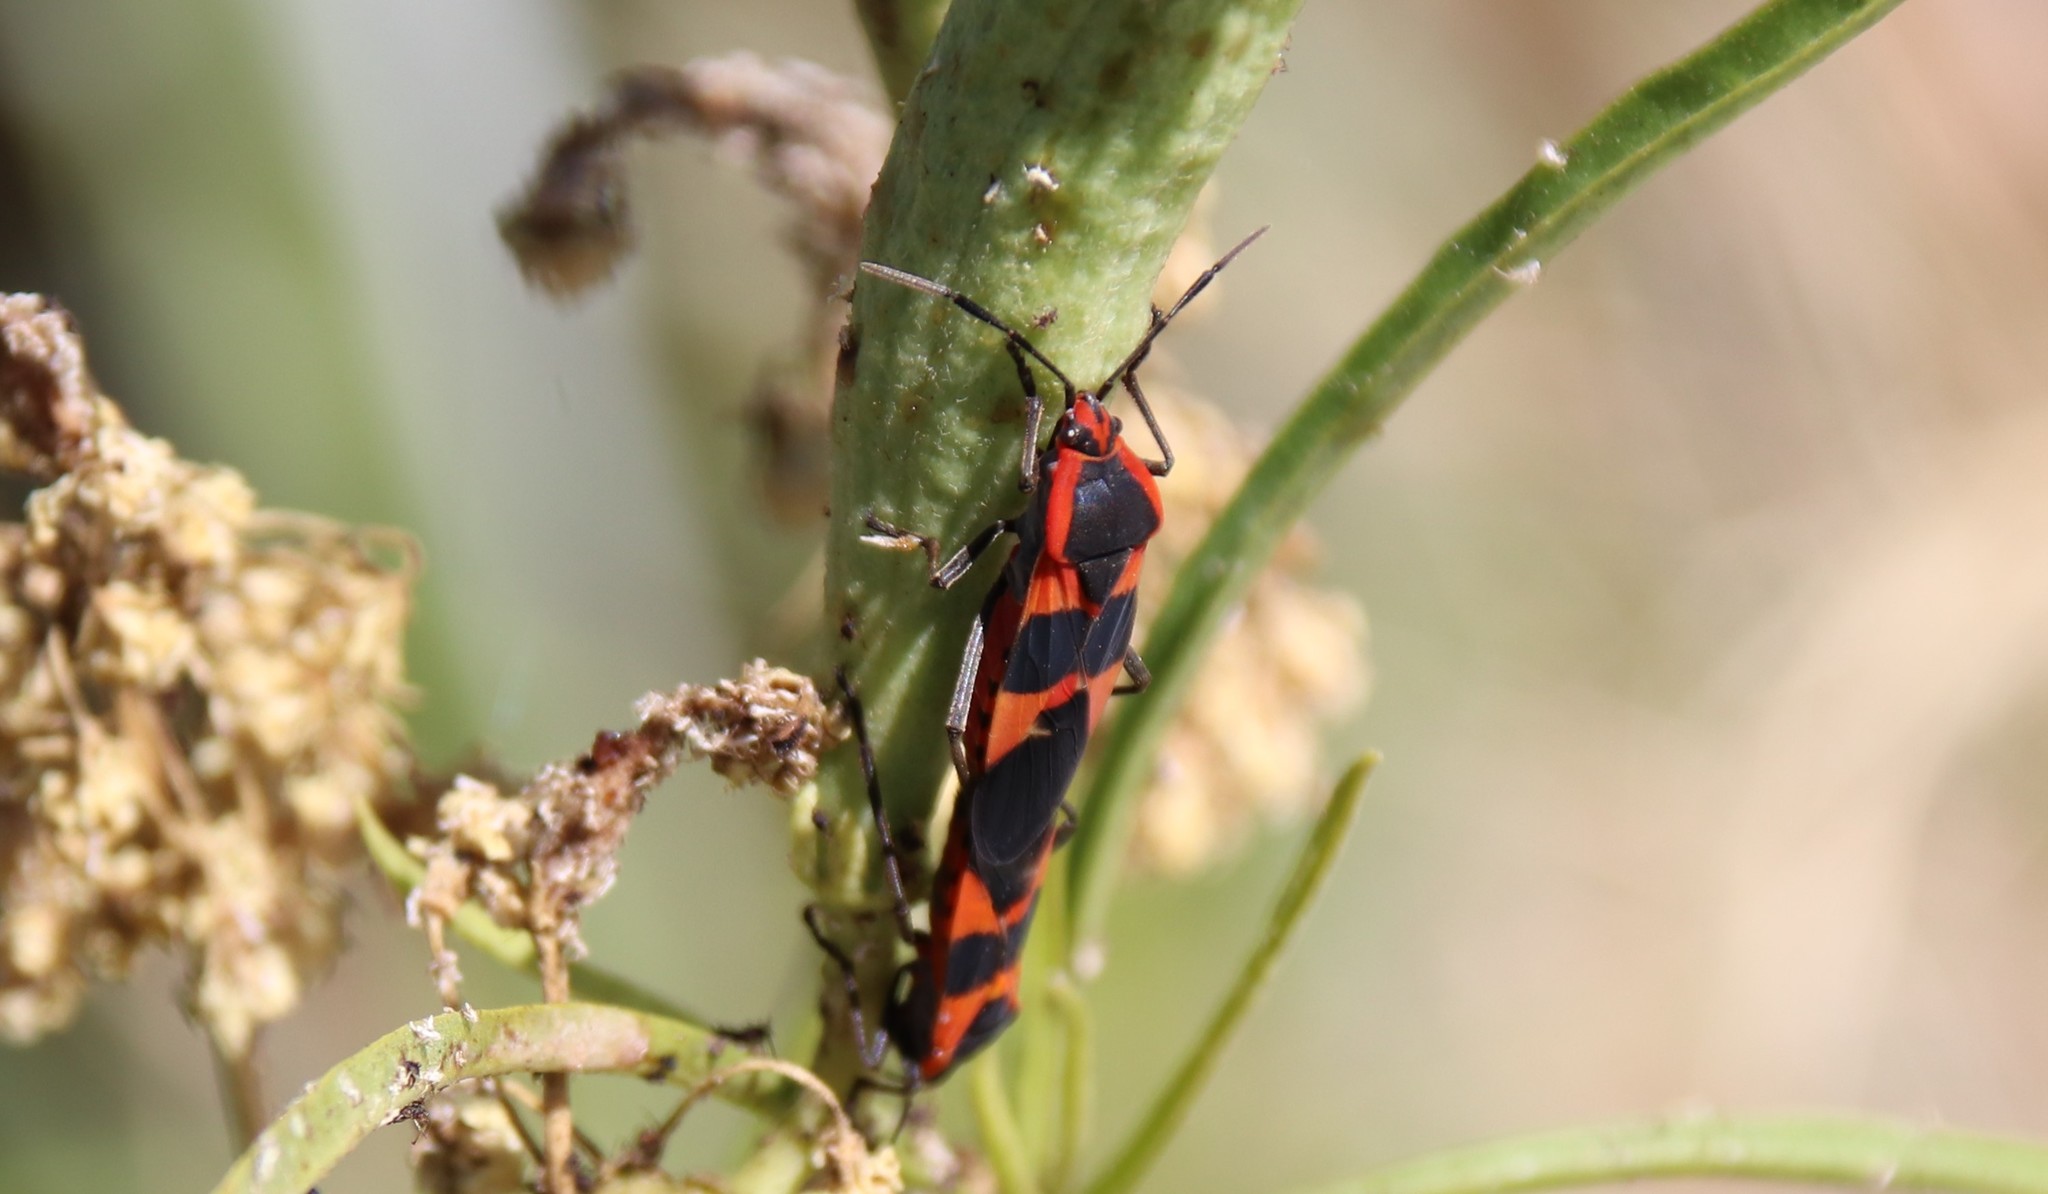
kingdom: Animalia
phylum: Arthropoda
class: Insecta
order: Hemiptera
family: Lygaeidae
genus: Oncopeltus
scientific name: Oncopeltus fasciatus
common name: Large milkweed bug
